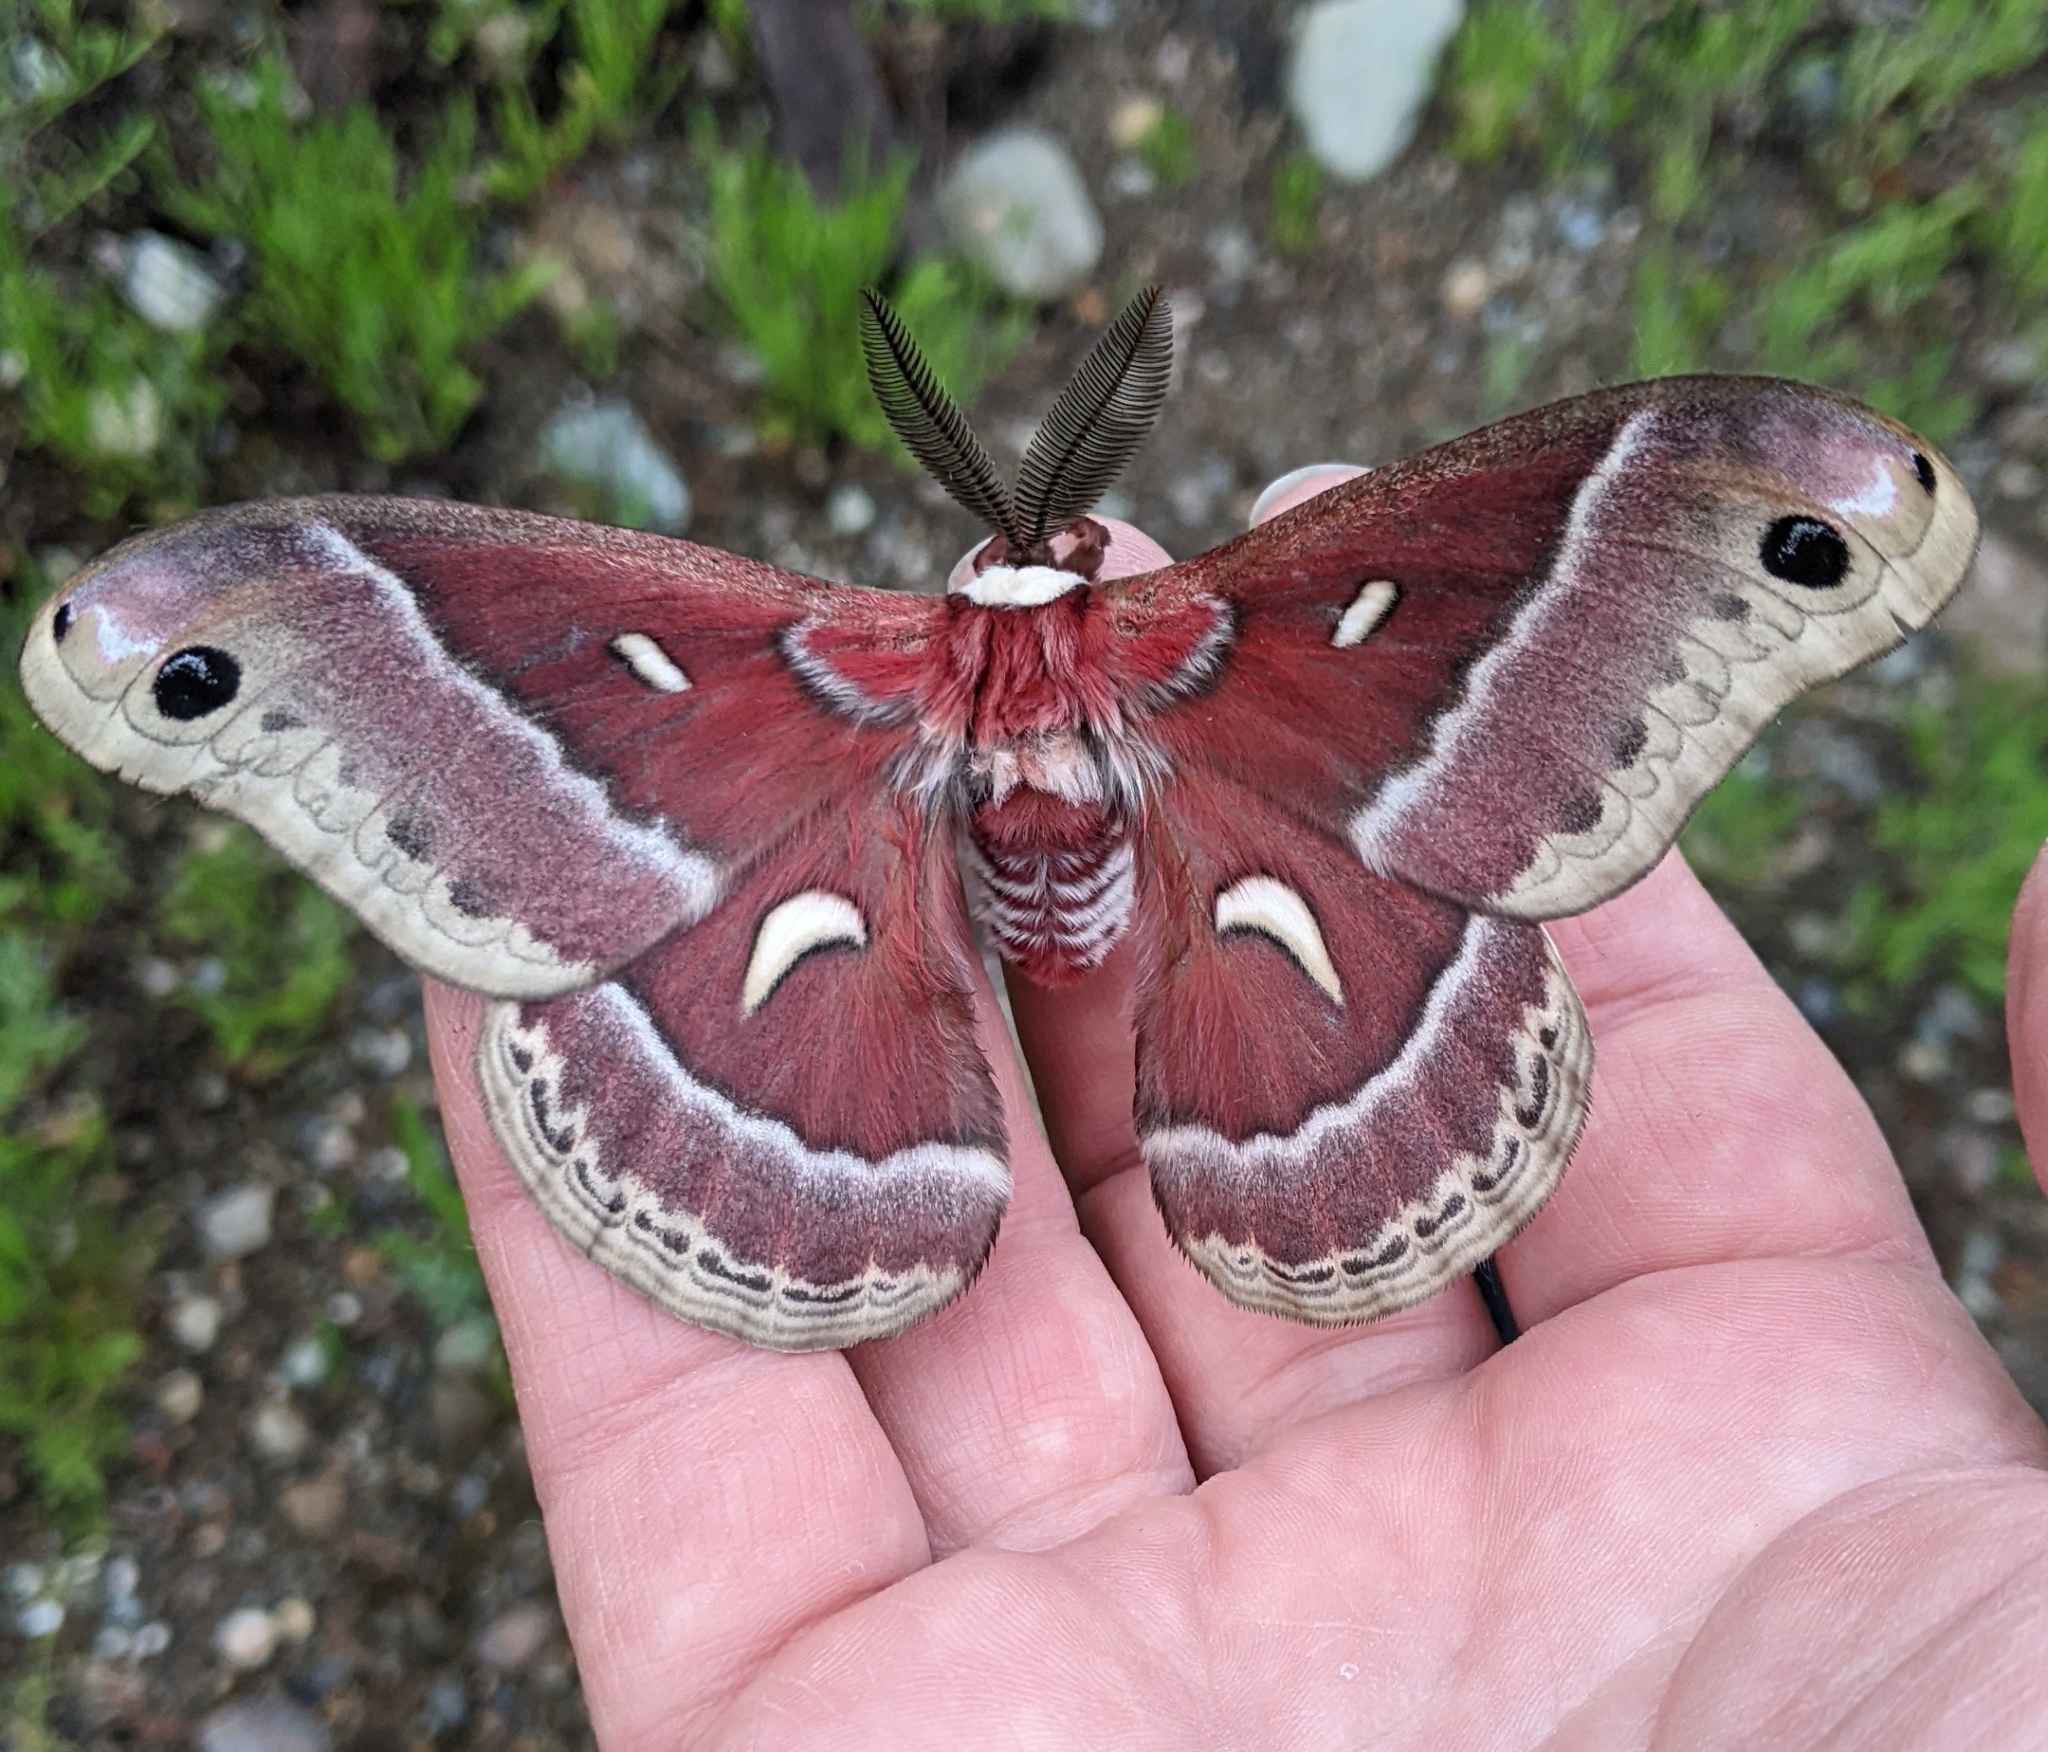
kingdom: Animalia
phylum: Arthropoda
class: Insecta
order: Lepidoptera
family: Saturniidae
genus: Hyalophora
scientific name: Hyalophora euryalus
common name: Ceanothus silkmoth
